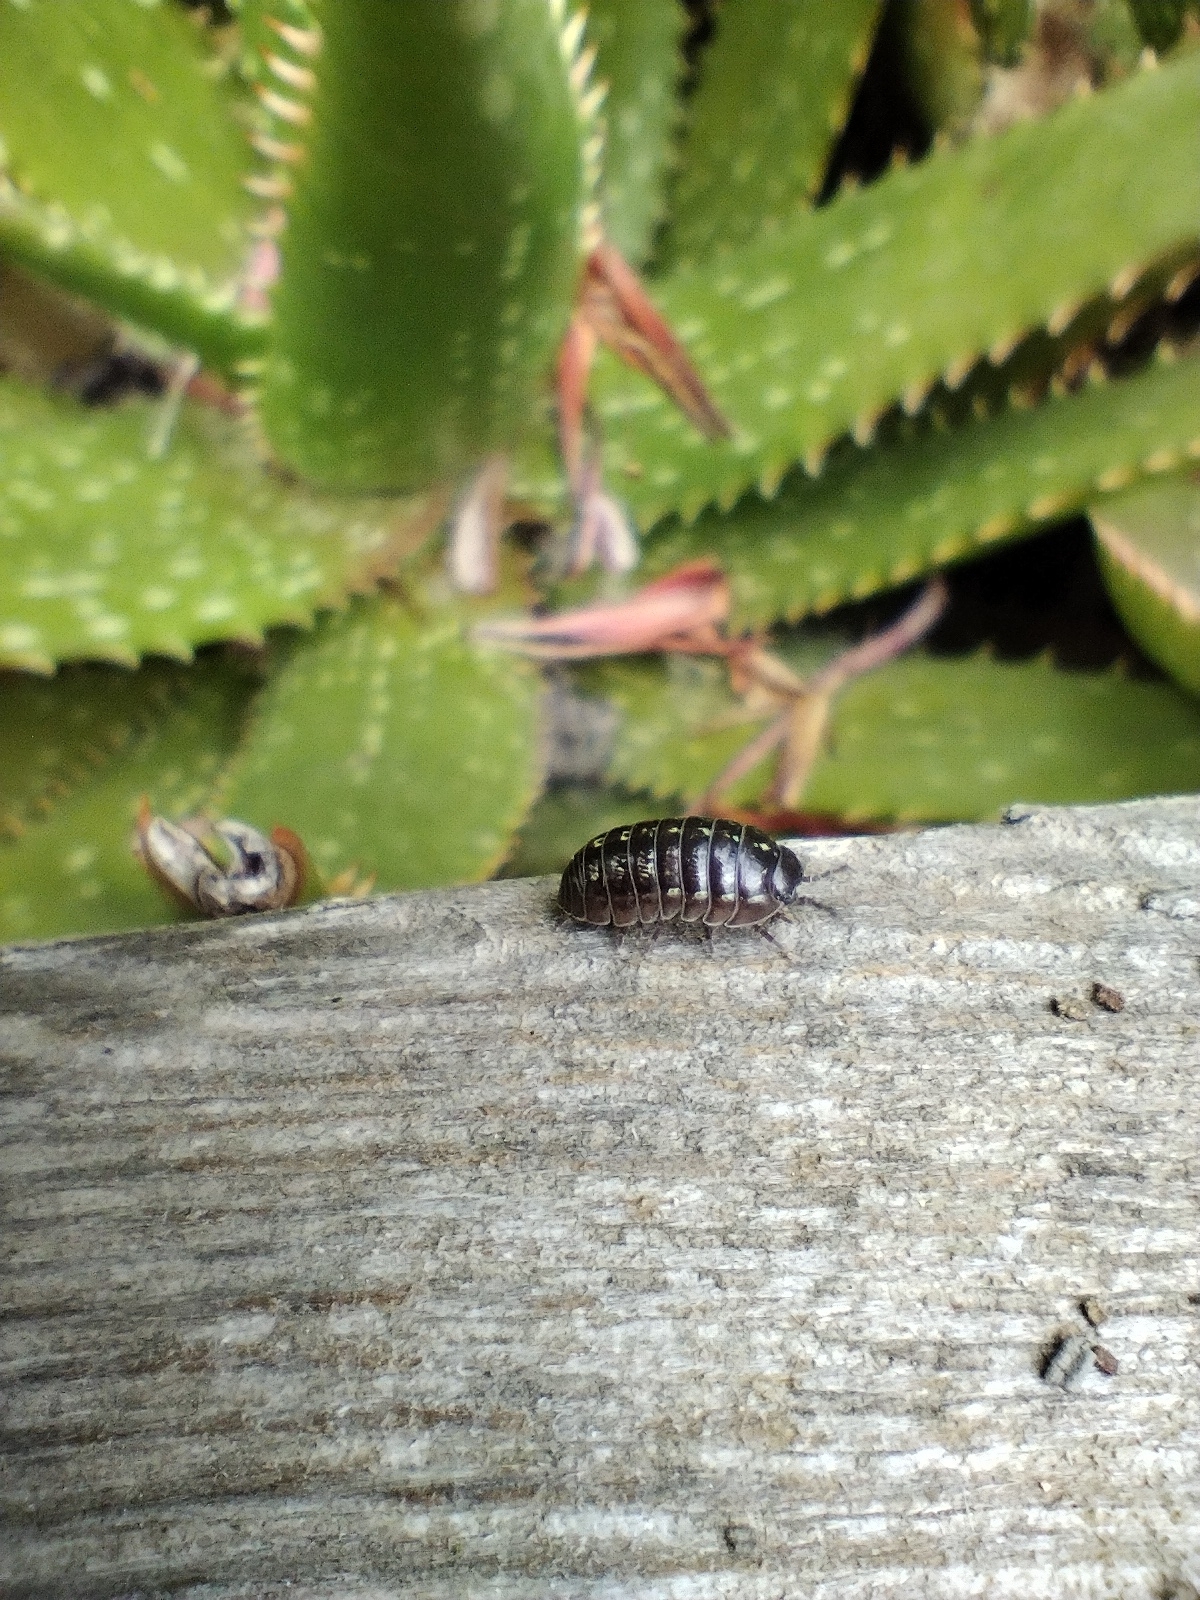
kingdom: Animalia
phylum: Arthropoda
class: Malacostraca
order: Isopoda
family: Armadillidiidae
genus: Armadillidium
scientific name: Armadillidium vulgare
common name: Common pill woodlouse
